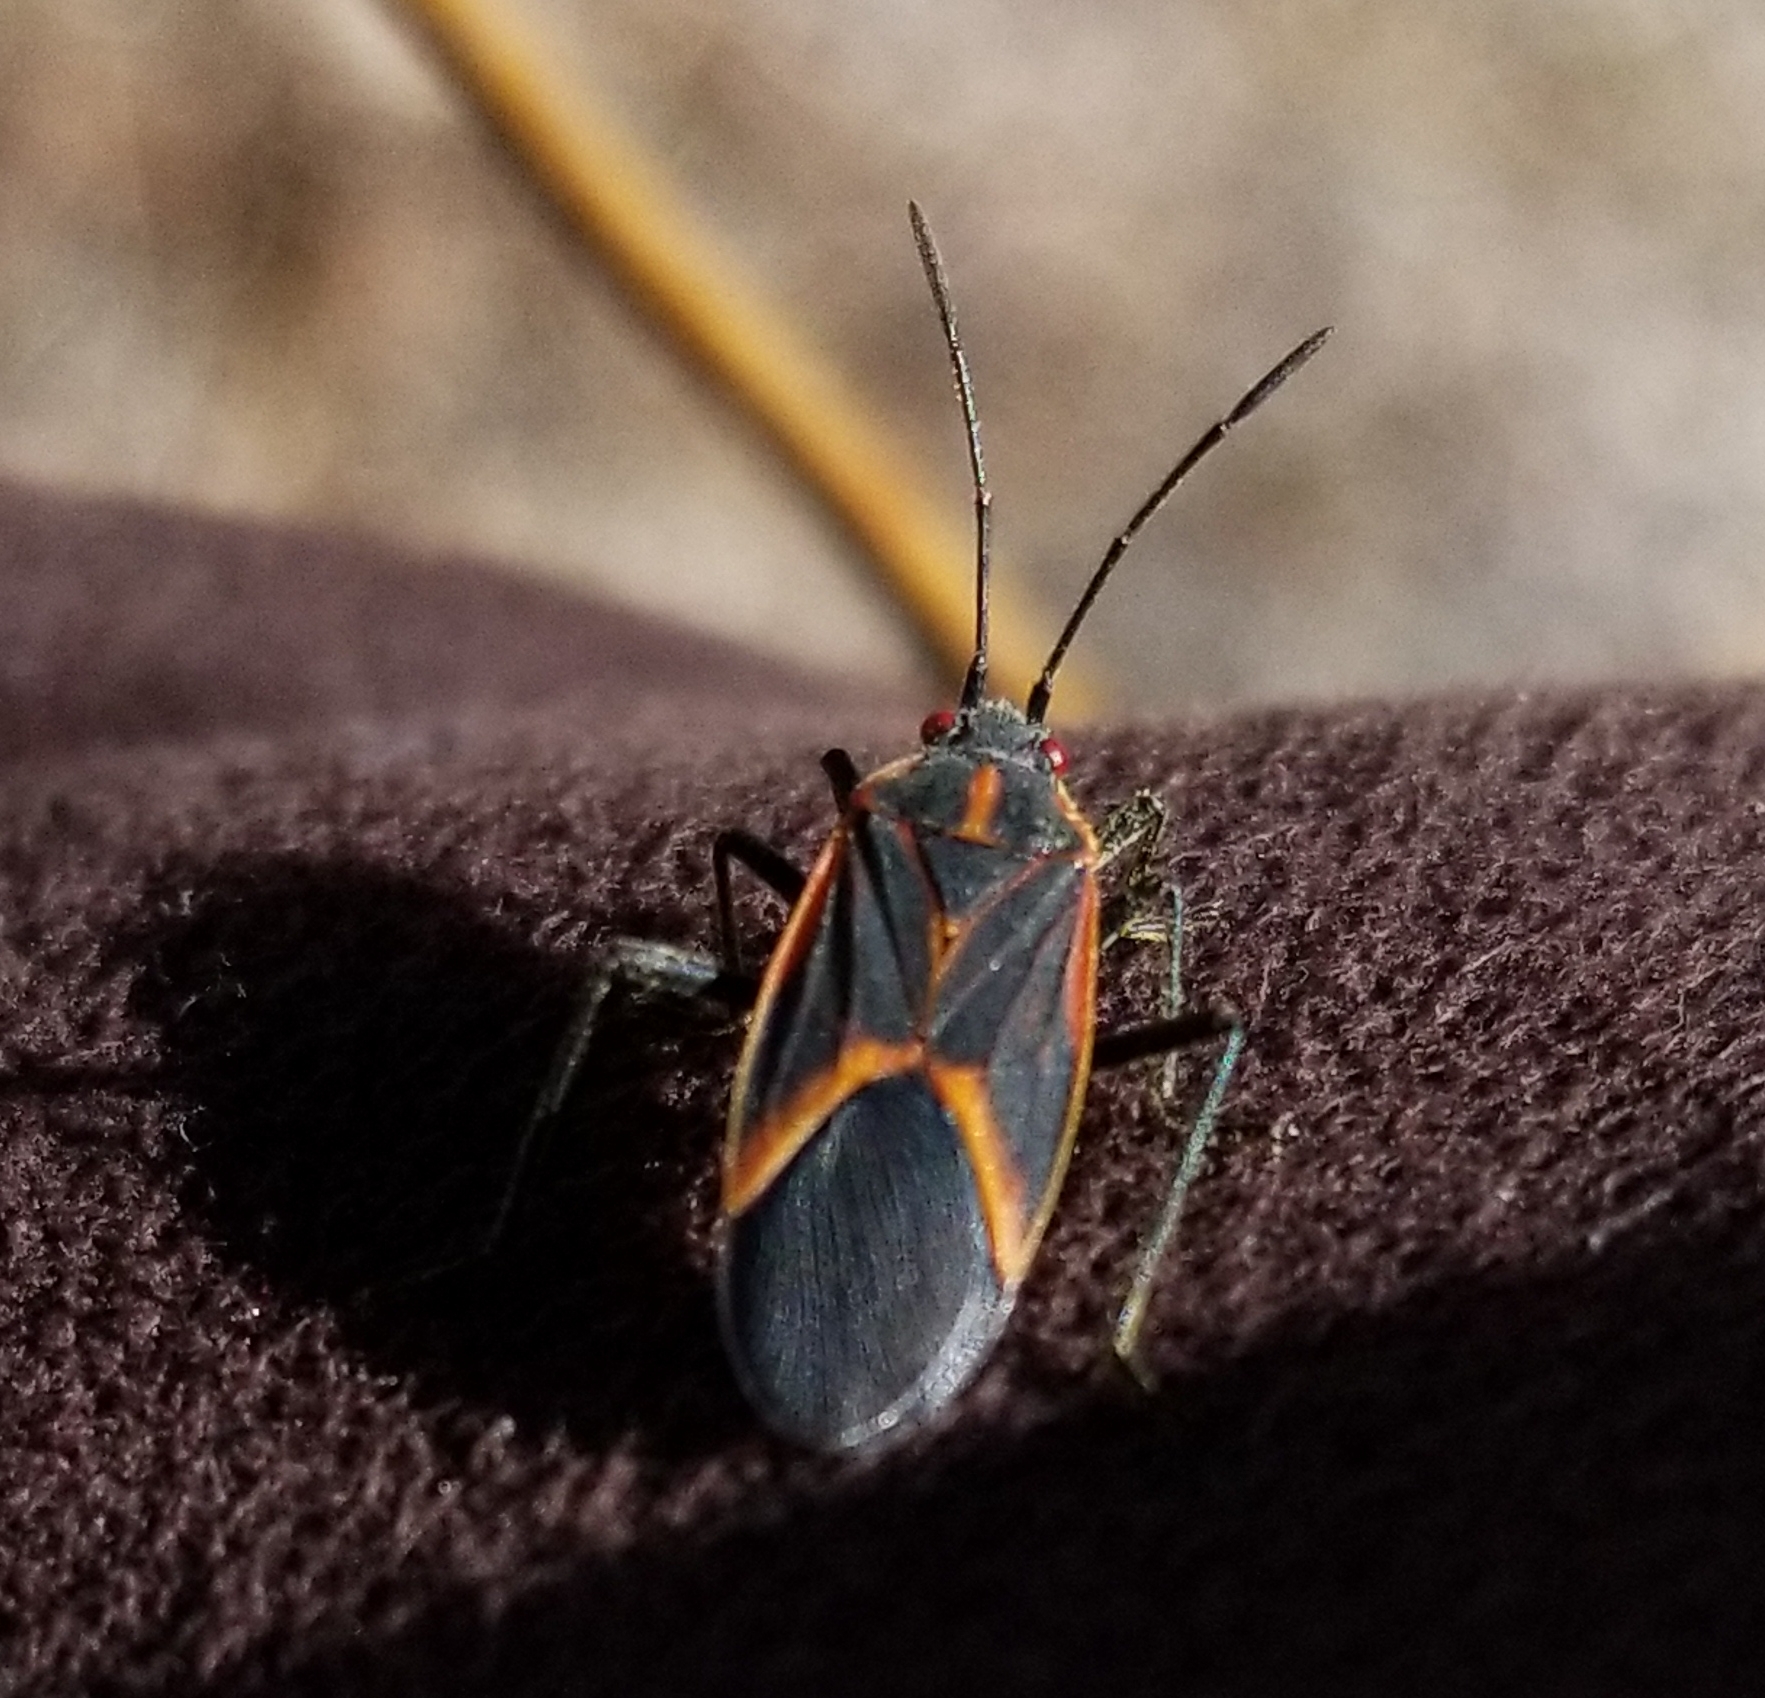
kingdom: Animalia
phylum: Arthropoda
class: Insecta
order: Hemiptera
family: Rhopalidae
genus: Boisea
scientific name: Boisea trivittata
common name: Boxelder bug
